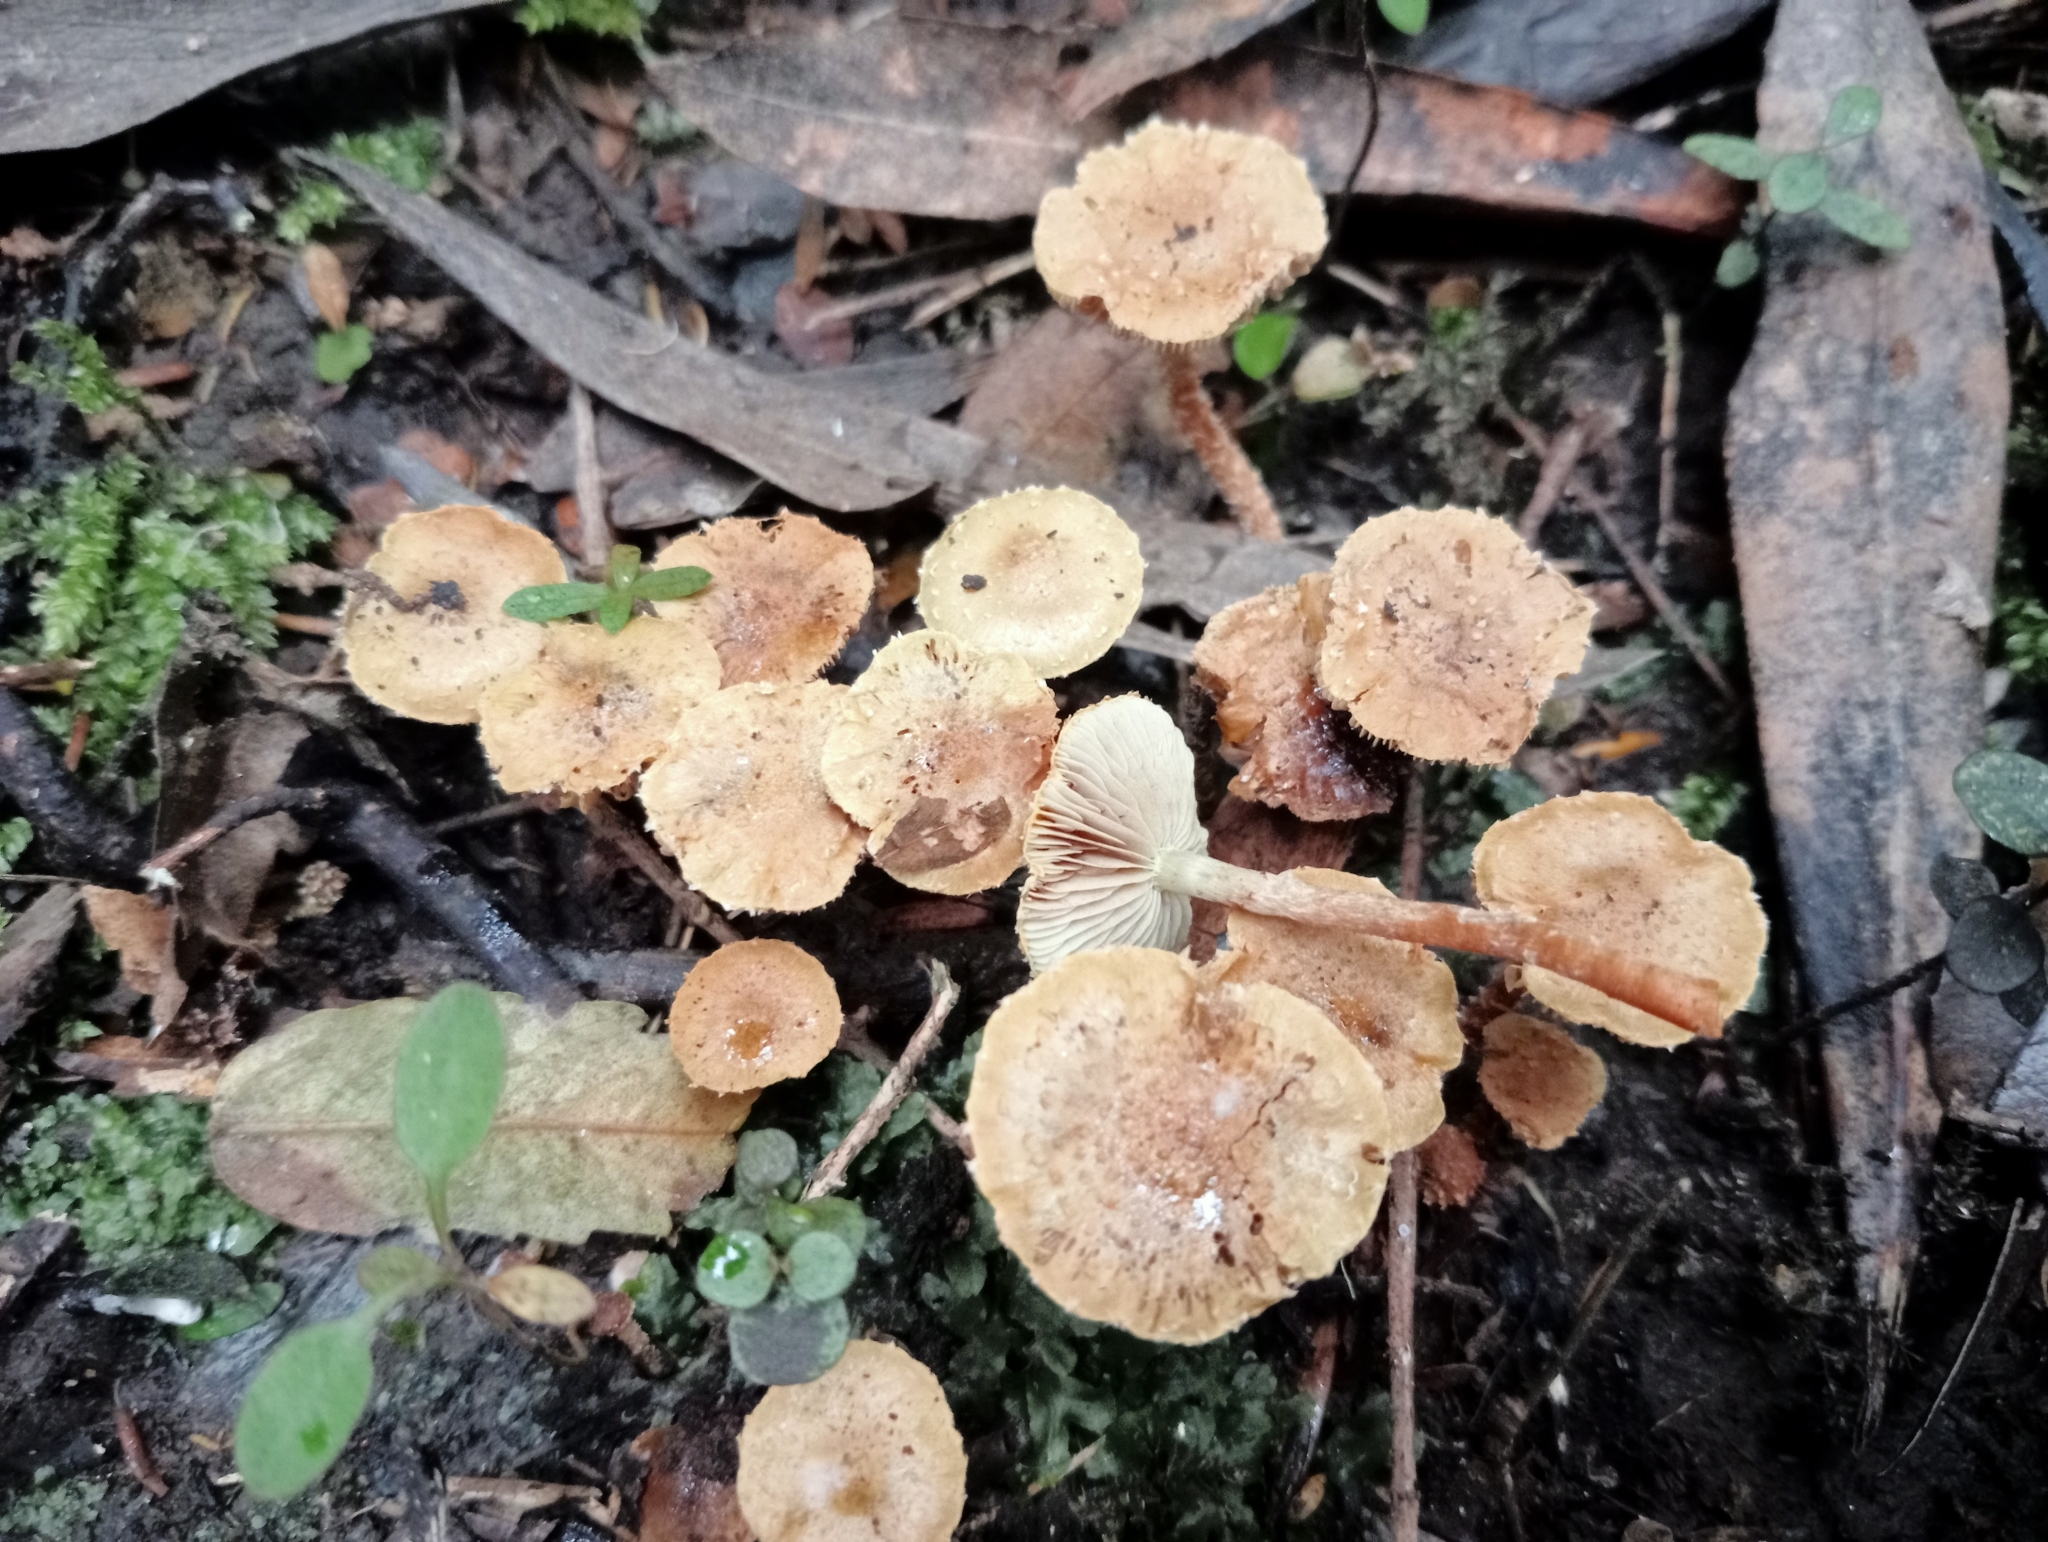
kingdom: Fungi
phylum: Basidiomycota
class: Agaricomycetes
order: Agaricales
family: Strophariaceae
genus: Pholiota
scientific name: Pholiota subflammans
